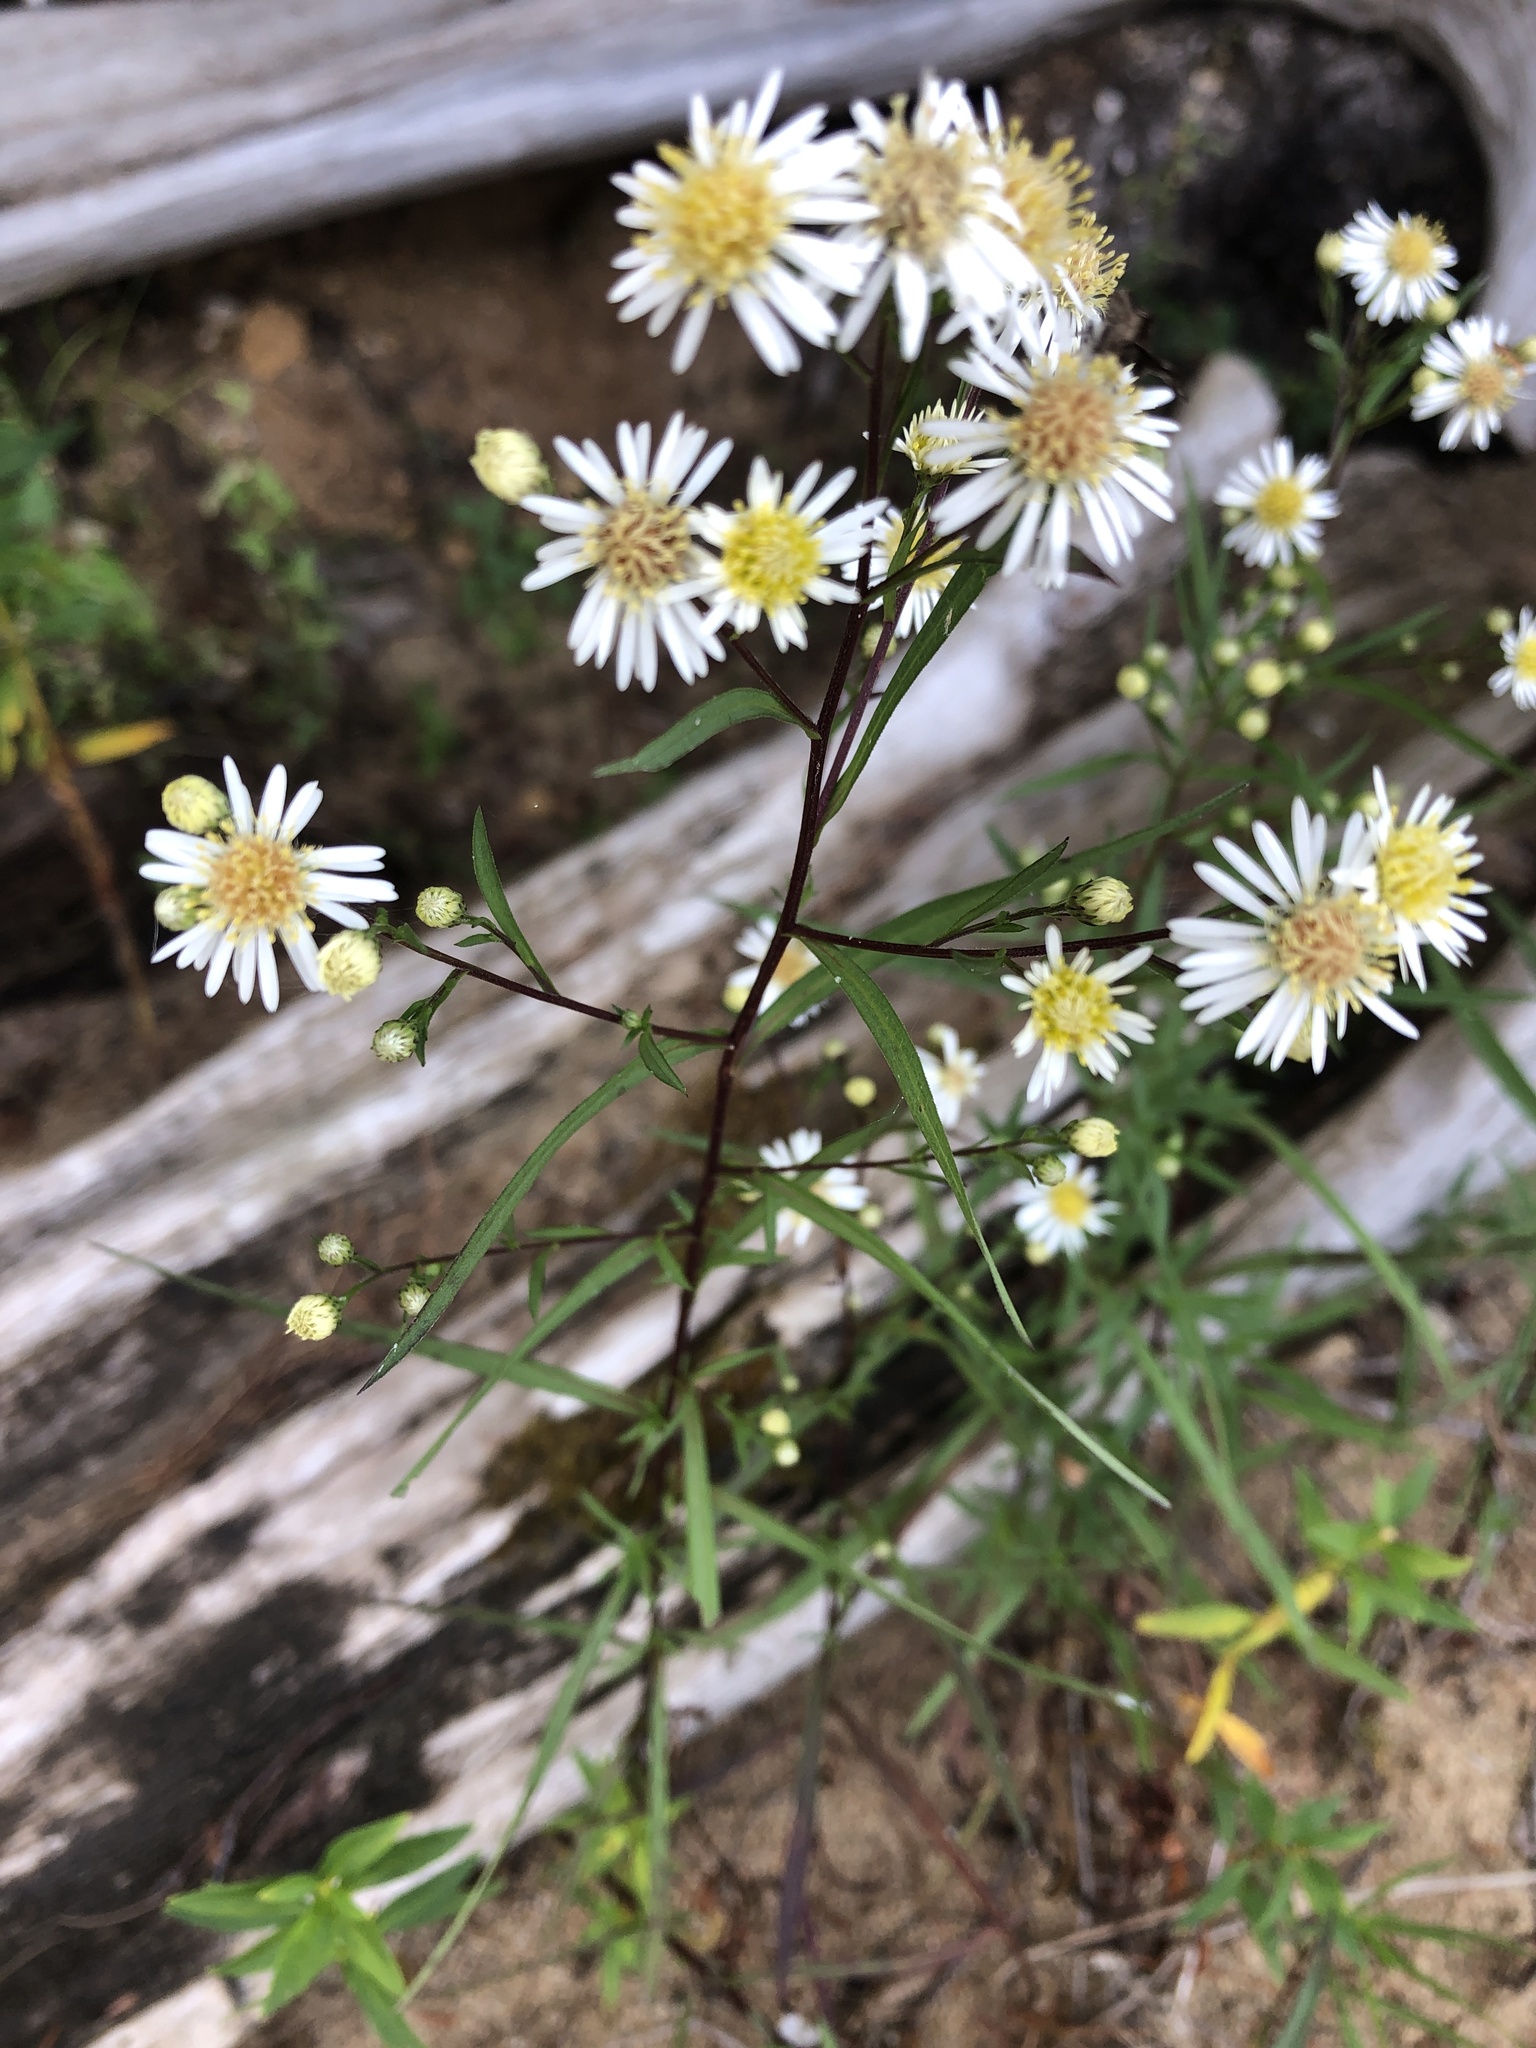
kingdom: Plantae
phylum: Tracheophyta
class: Magnoliopsida
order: Asterales
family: Asteraceae
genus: Symphyotrichum
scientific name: Symphyotrichum lanceolatum
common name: Panicled aster
